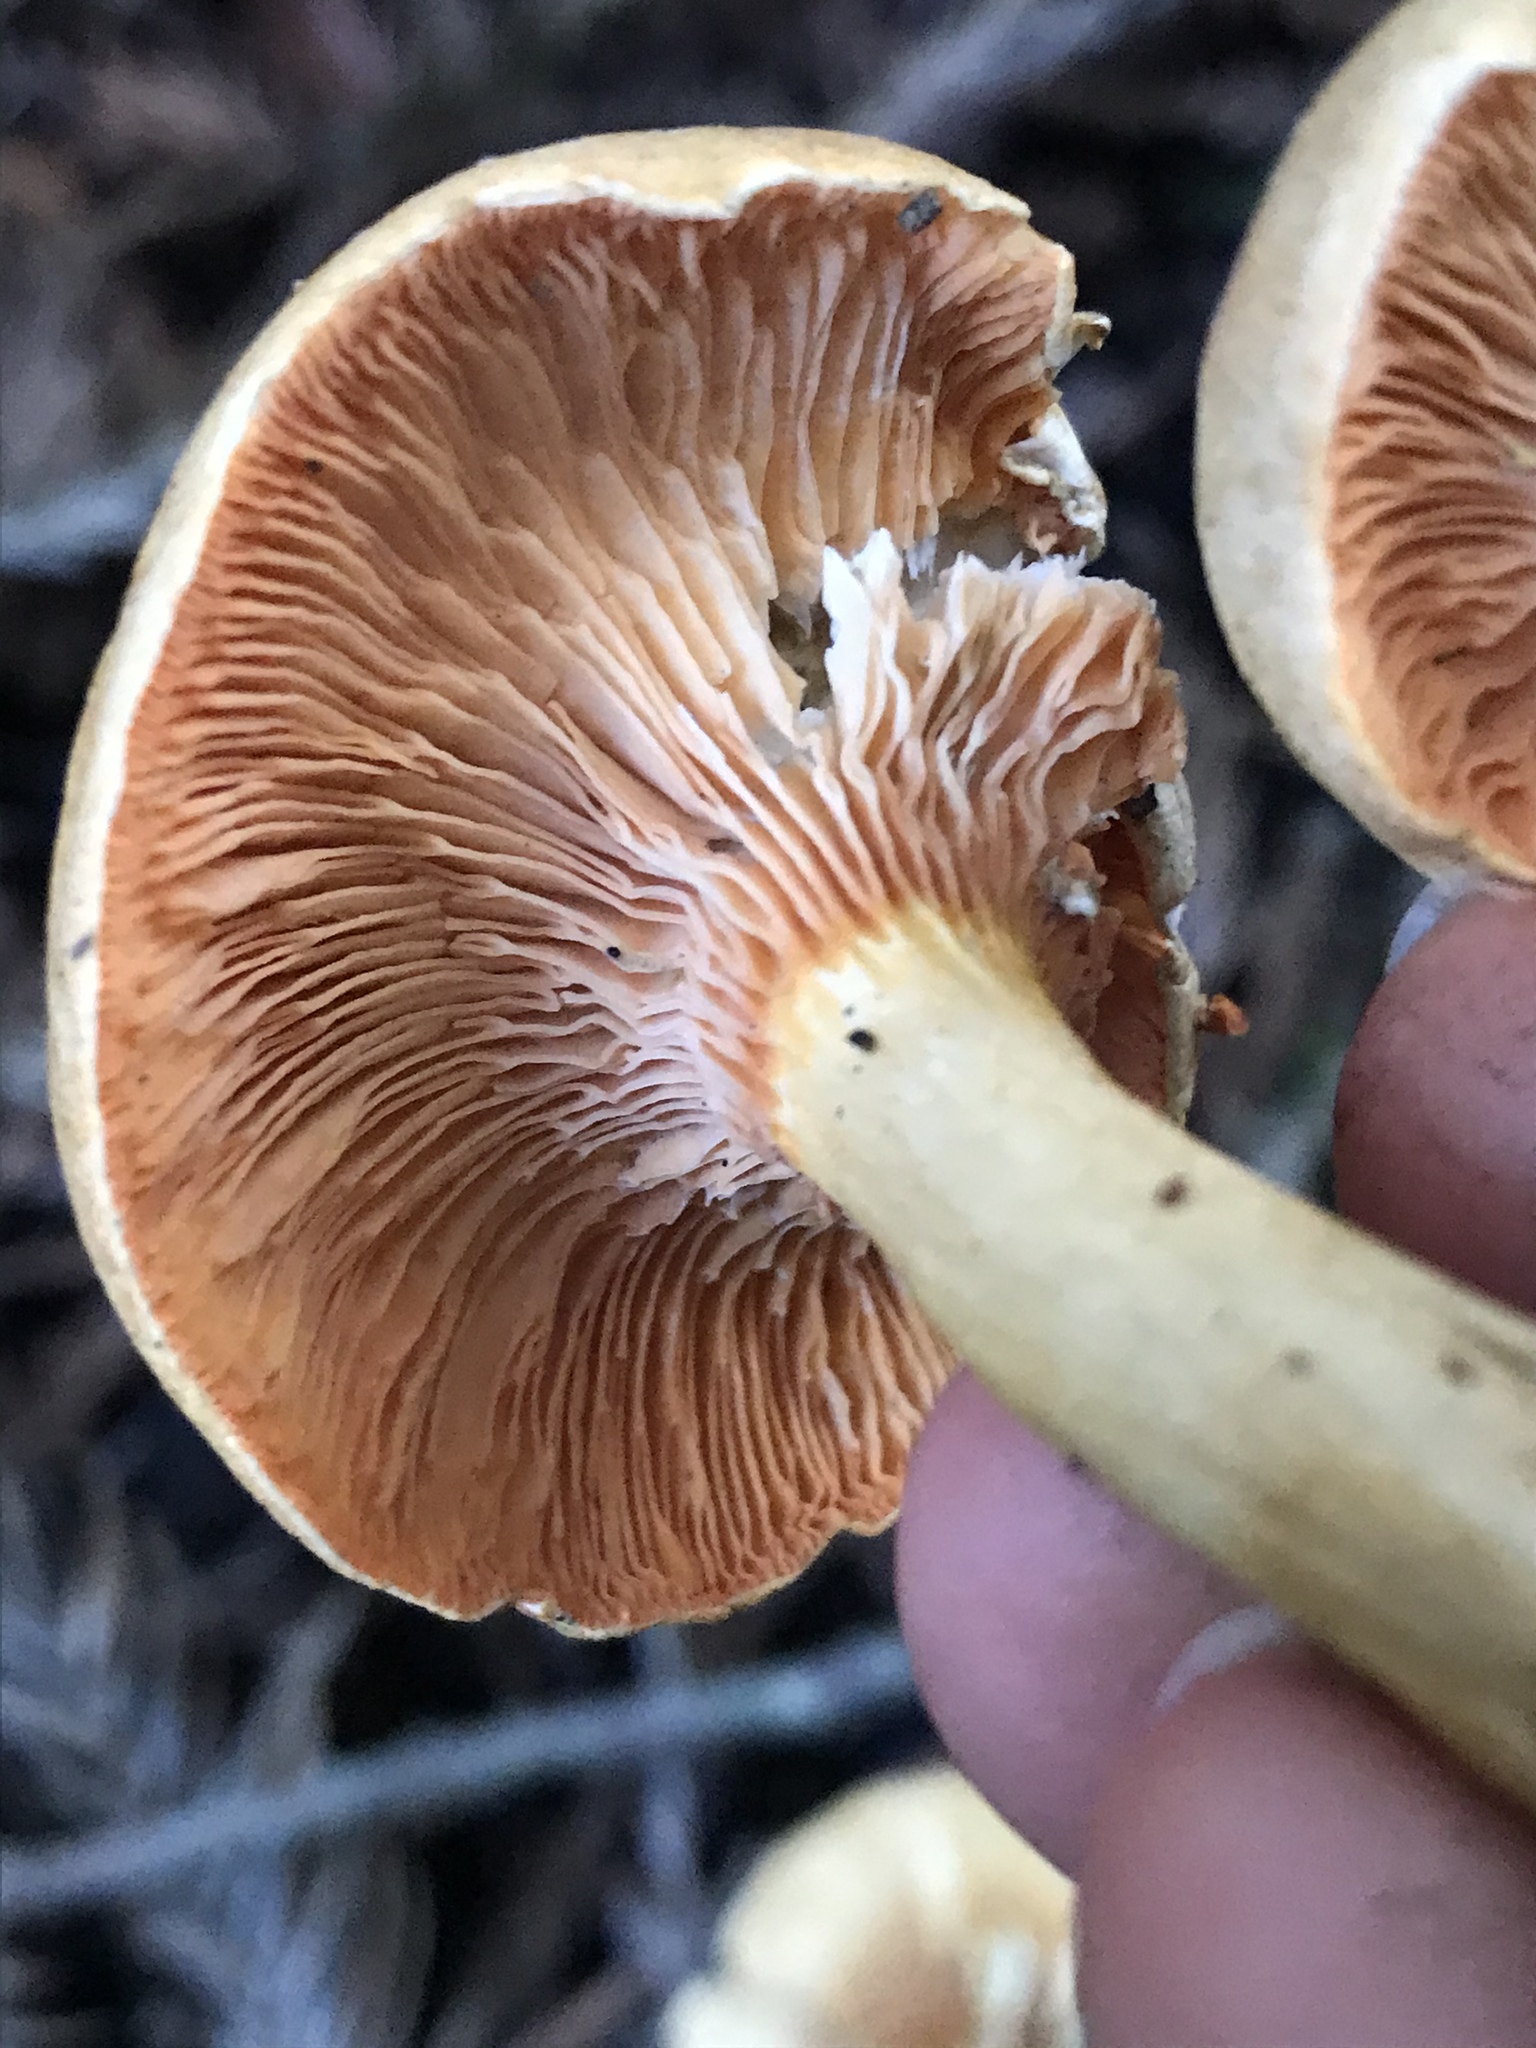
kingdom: Fungi
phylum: Basidiomycota
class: Agaricomycetes
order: Boletales
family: Hygrophoropsidaceae
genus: Hygrophoropsis
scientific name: Hygrophoropsis aurantiaca
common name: False chanterelle
